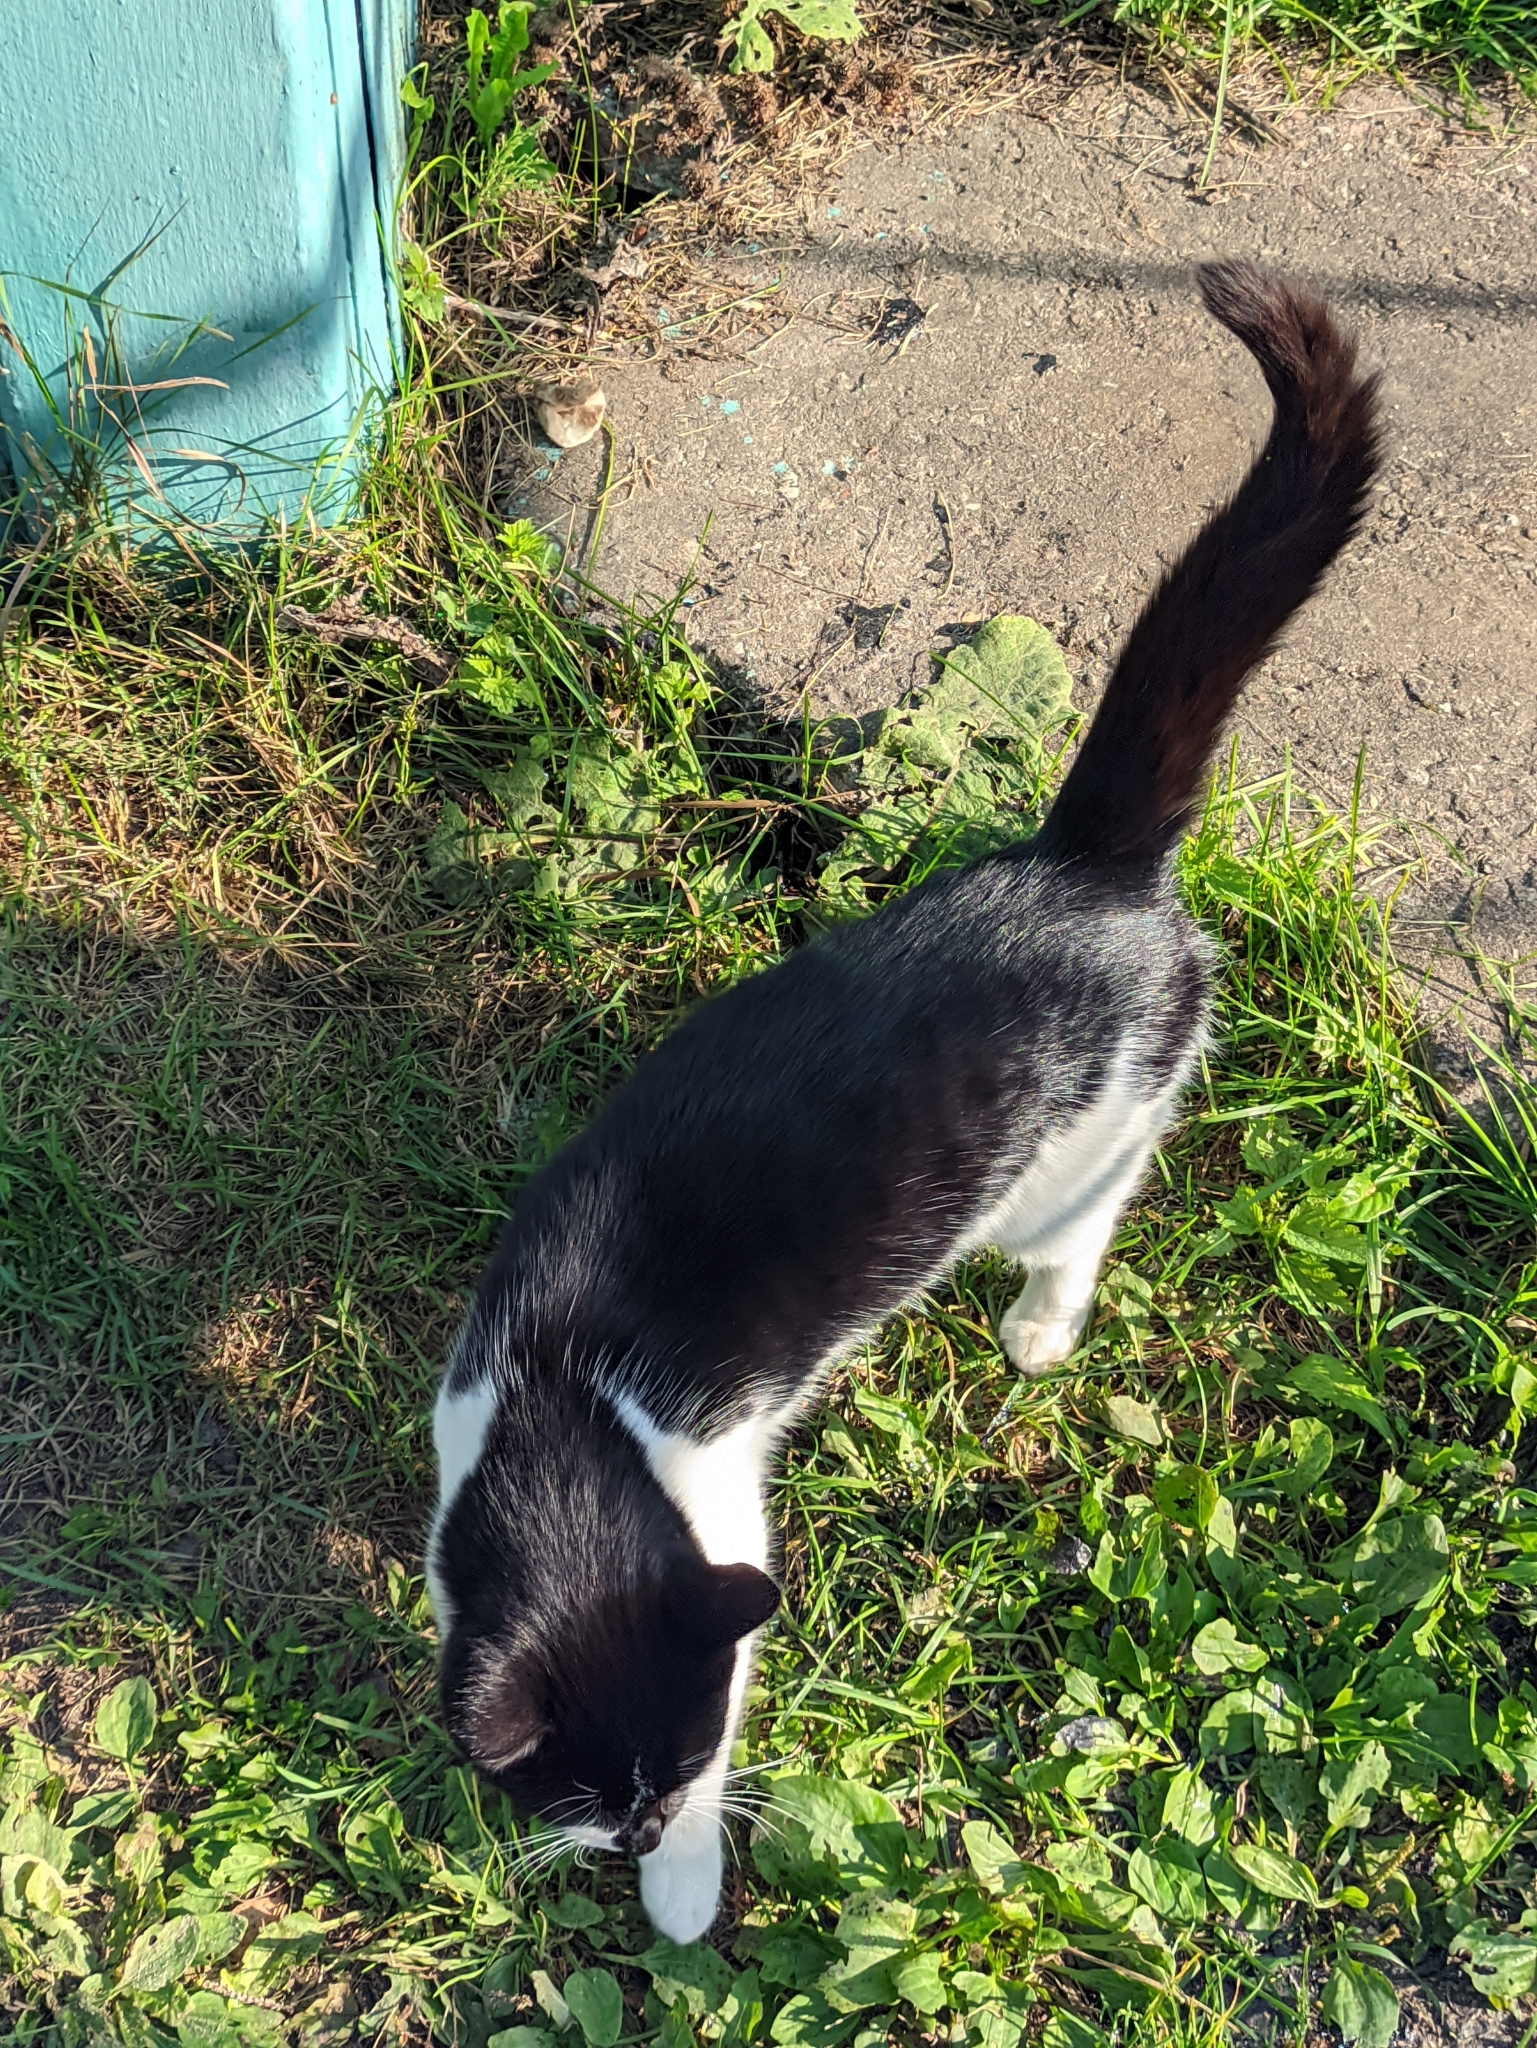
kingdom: Animalia
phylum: Chordata
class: Mammalia
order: Carnivora
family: Felidae
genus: Felis
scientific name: Felis catus
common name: Domestic cat
